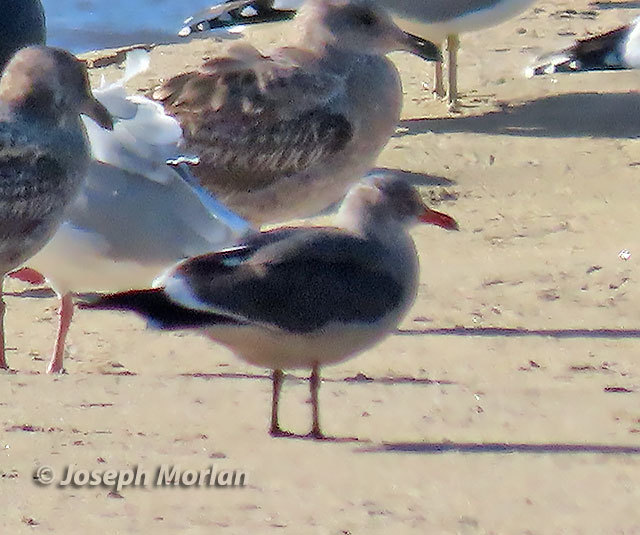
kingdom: Animalia
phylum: Chordata
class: Aves
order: Charadriiformes
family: Laridae
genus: Larus
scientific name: Larus heermanni
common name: Heermann's gull
